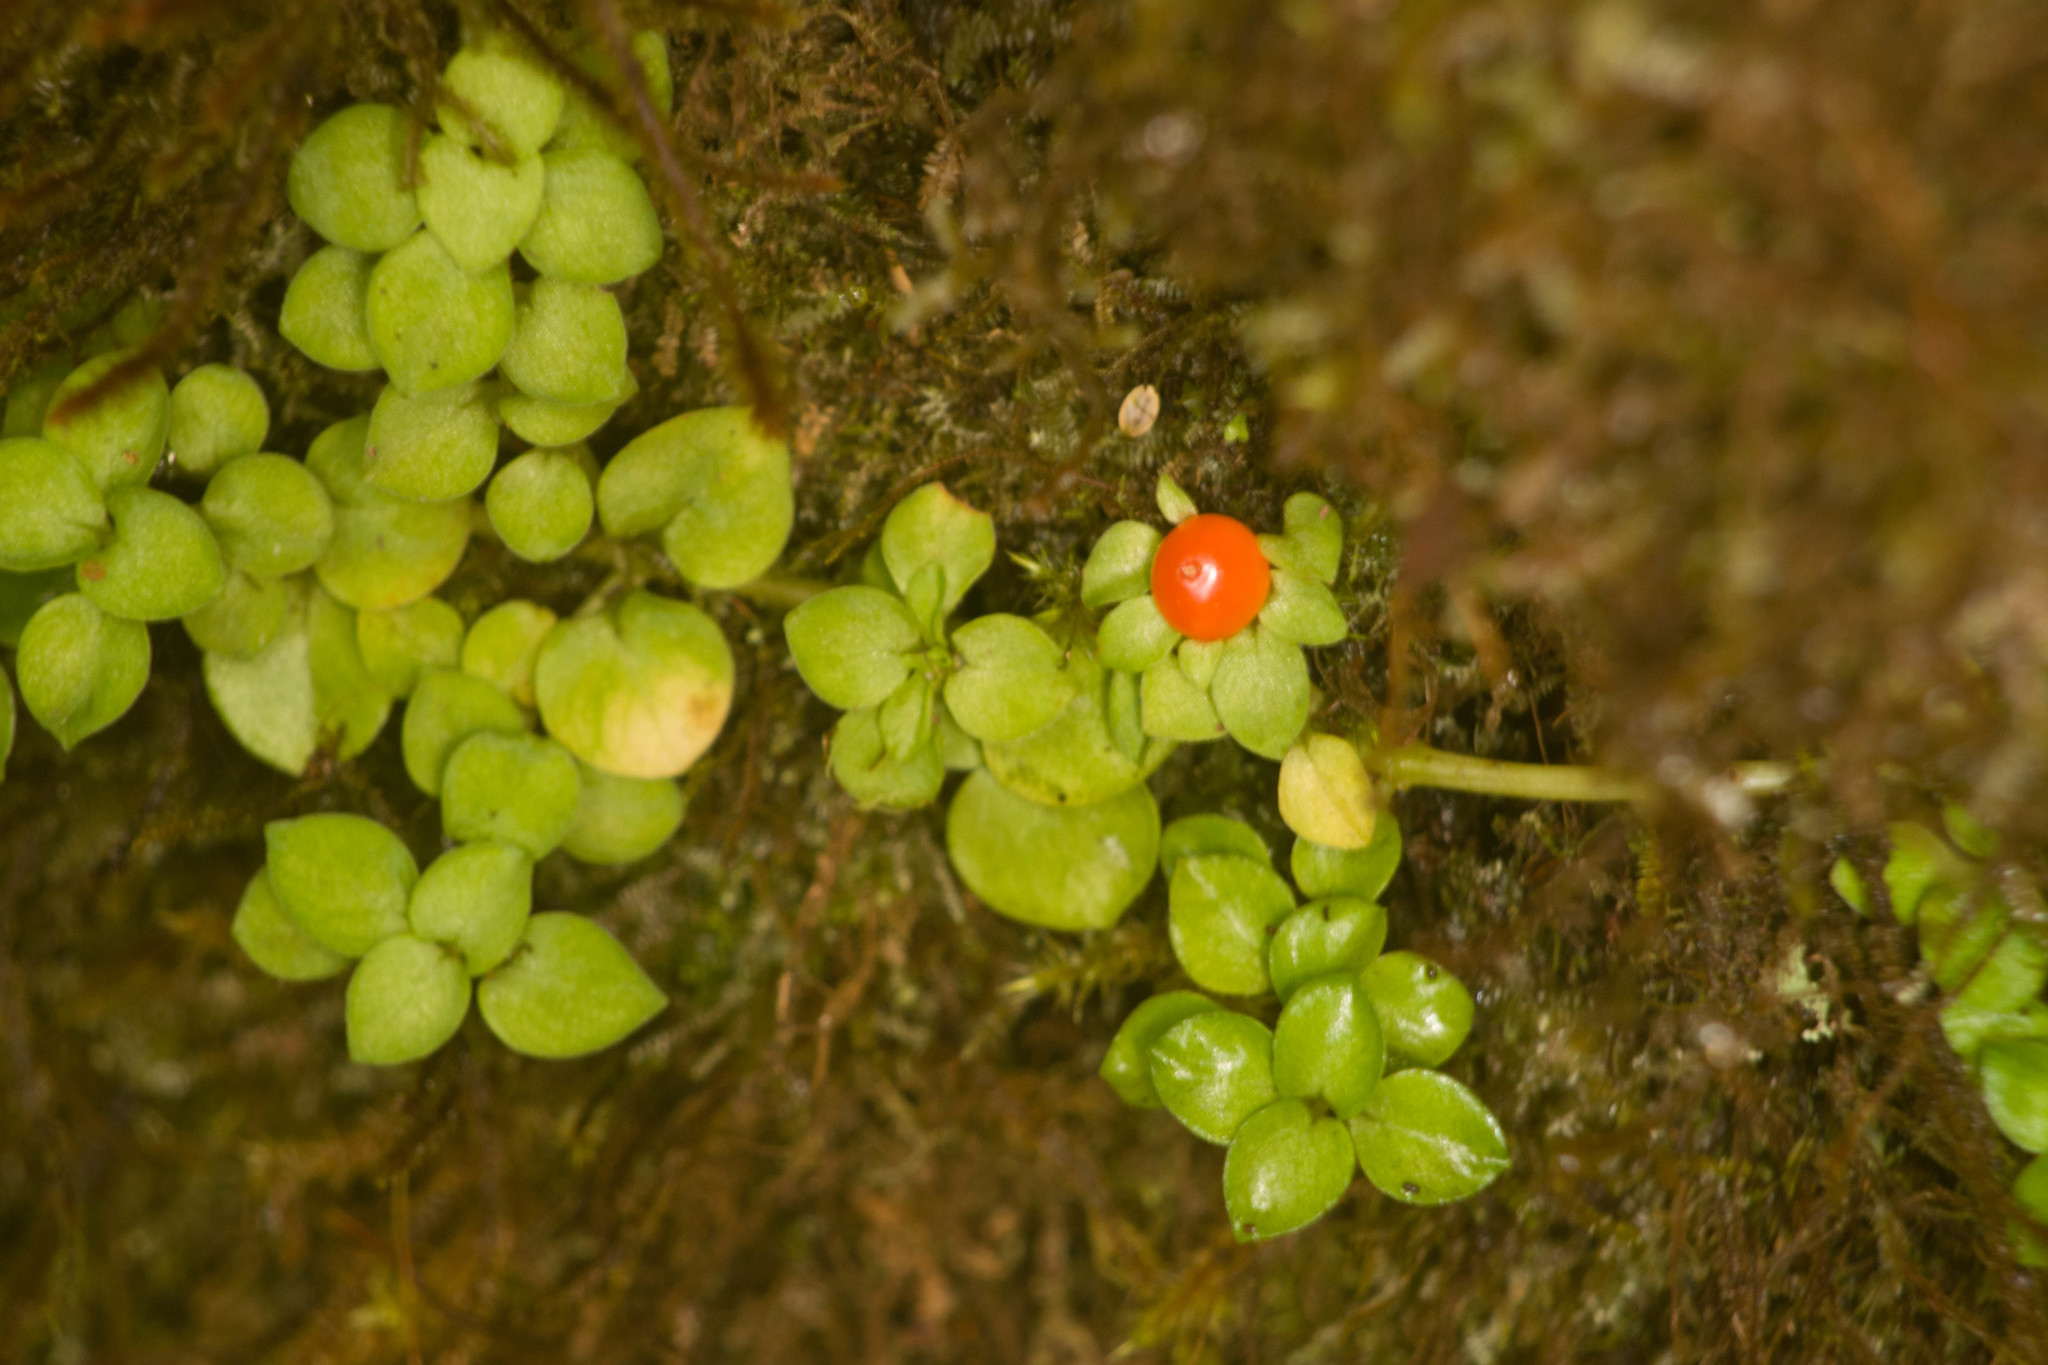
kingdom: Plantae
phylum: Tracheophyta
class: Magnoliopsida
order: Gentianales
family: Rubiaceae
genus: Nertera
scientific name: Nertera granadensis
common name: Beadplant
